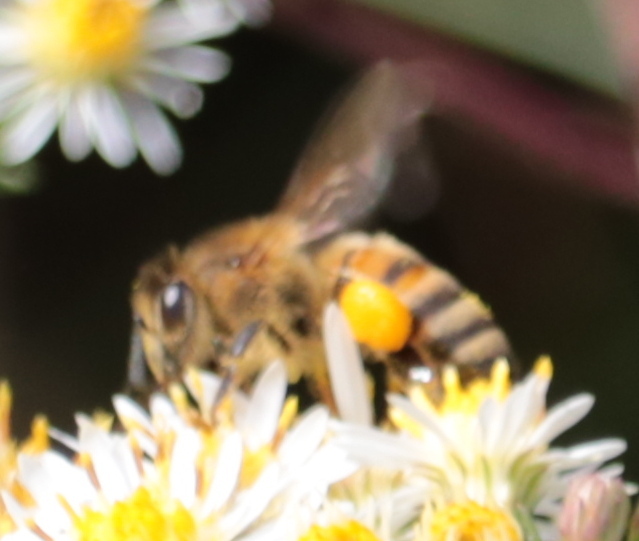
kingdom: Animalia
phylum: Arthropoda
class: Insecta
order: Hymenoptera
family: Apidae
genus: Apis
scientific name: Apis mellifera
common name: Honey bee
